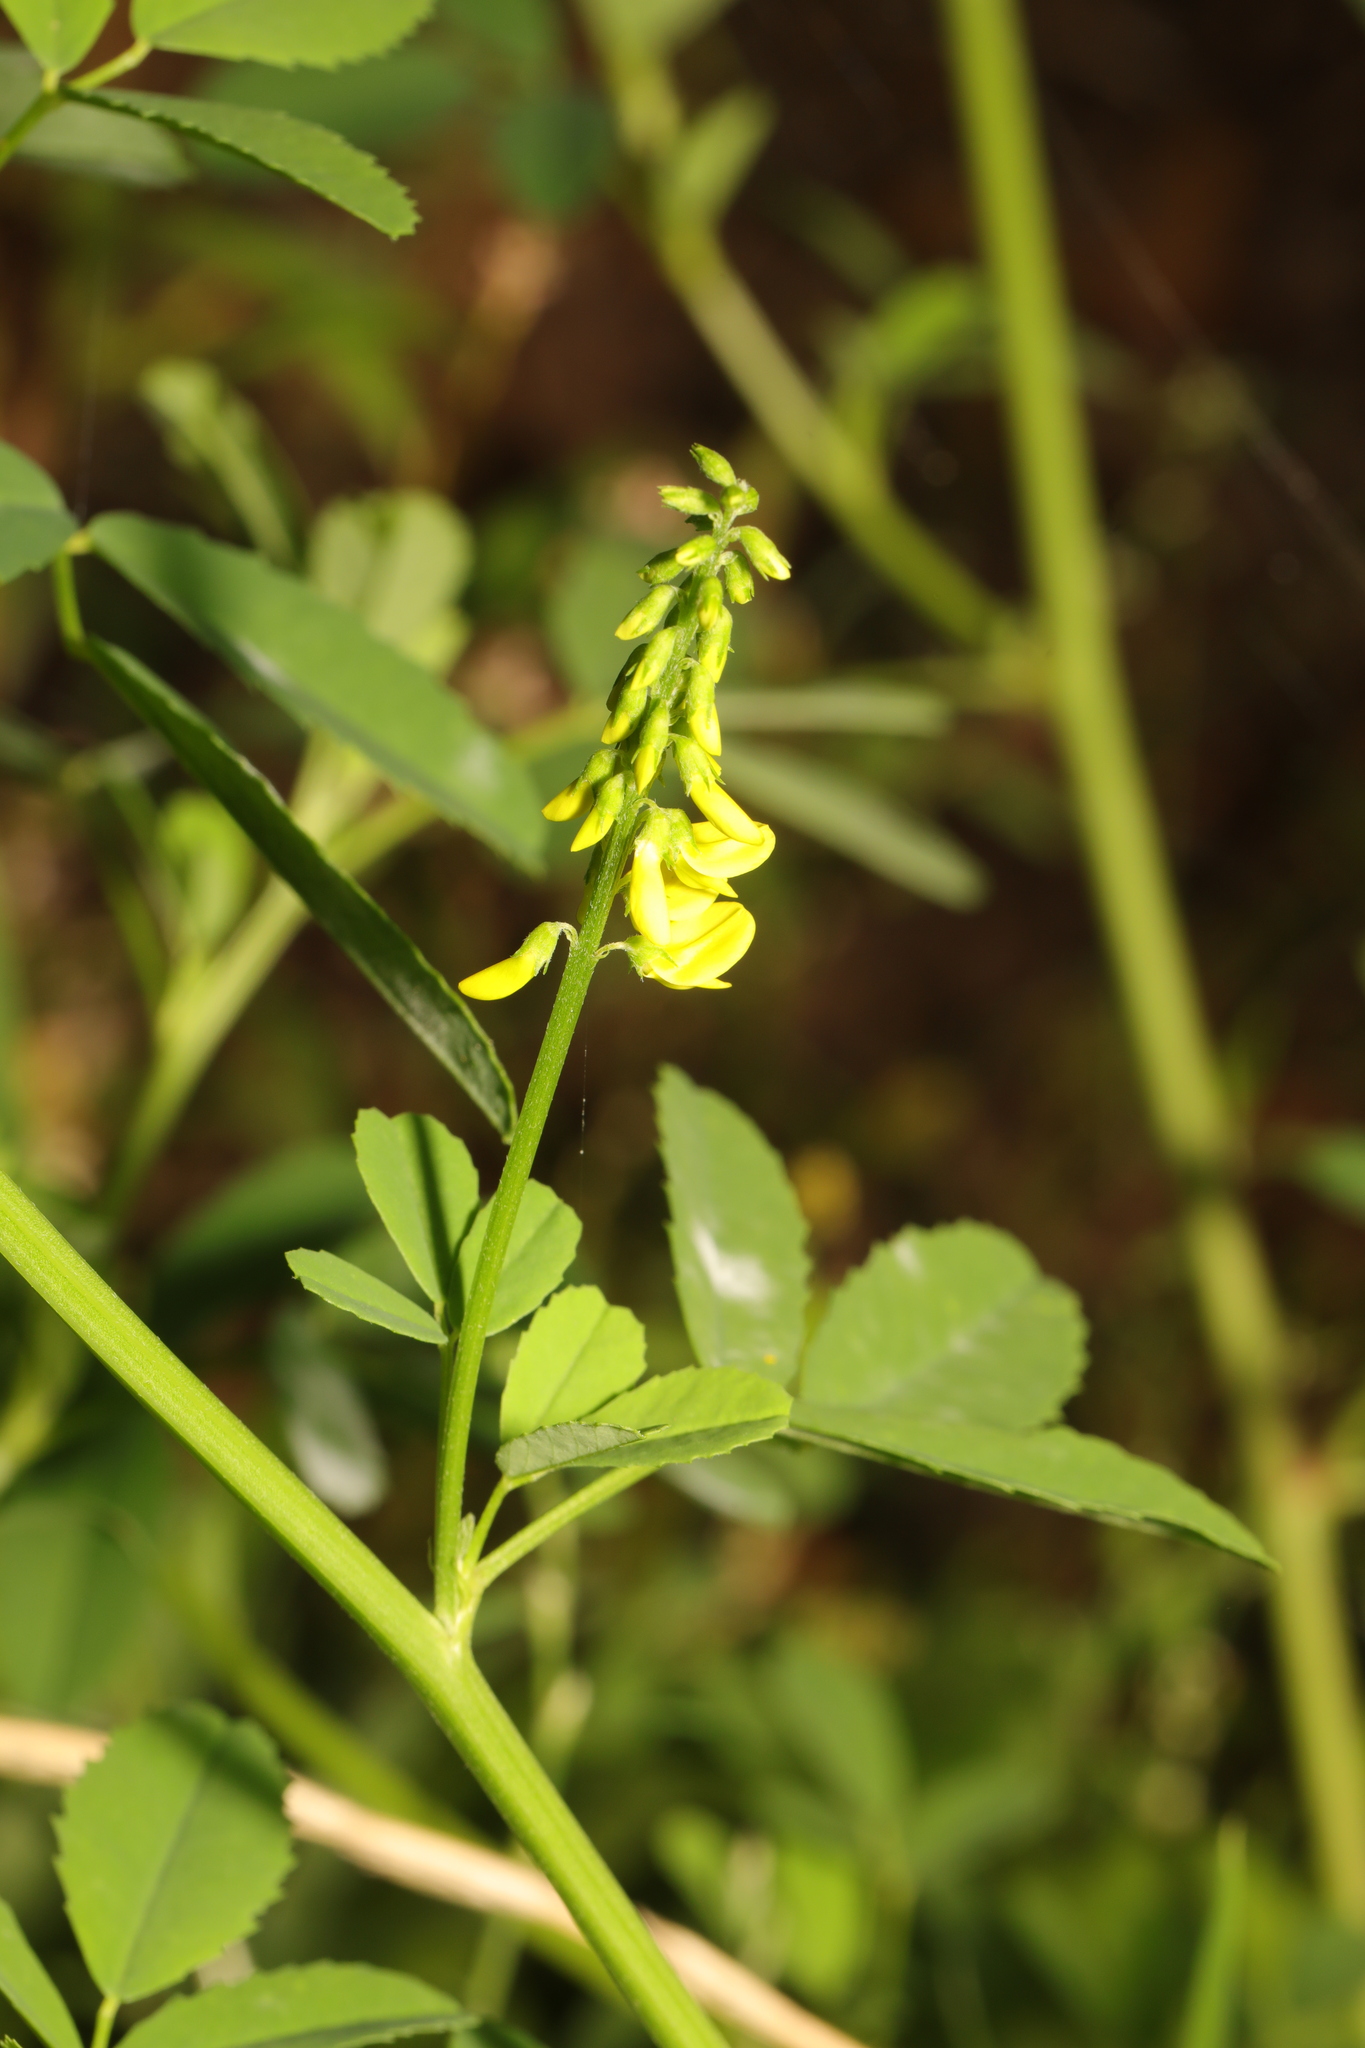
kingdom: Plantae
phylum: Tracheophyta
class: Magnoliopsida
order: Fabales
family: Fabaceae
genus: Melilotus
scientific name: Melilotus officinalis
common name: Sweetclover
